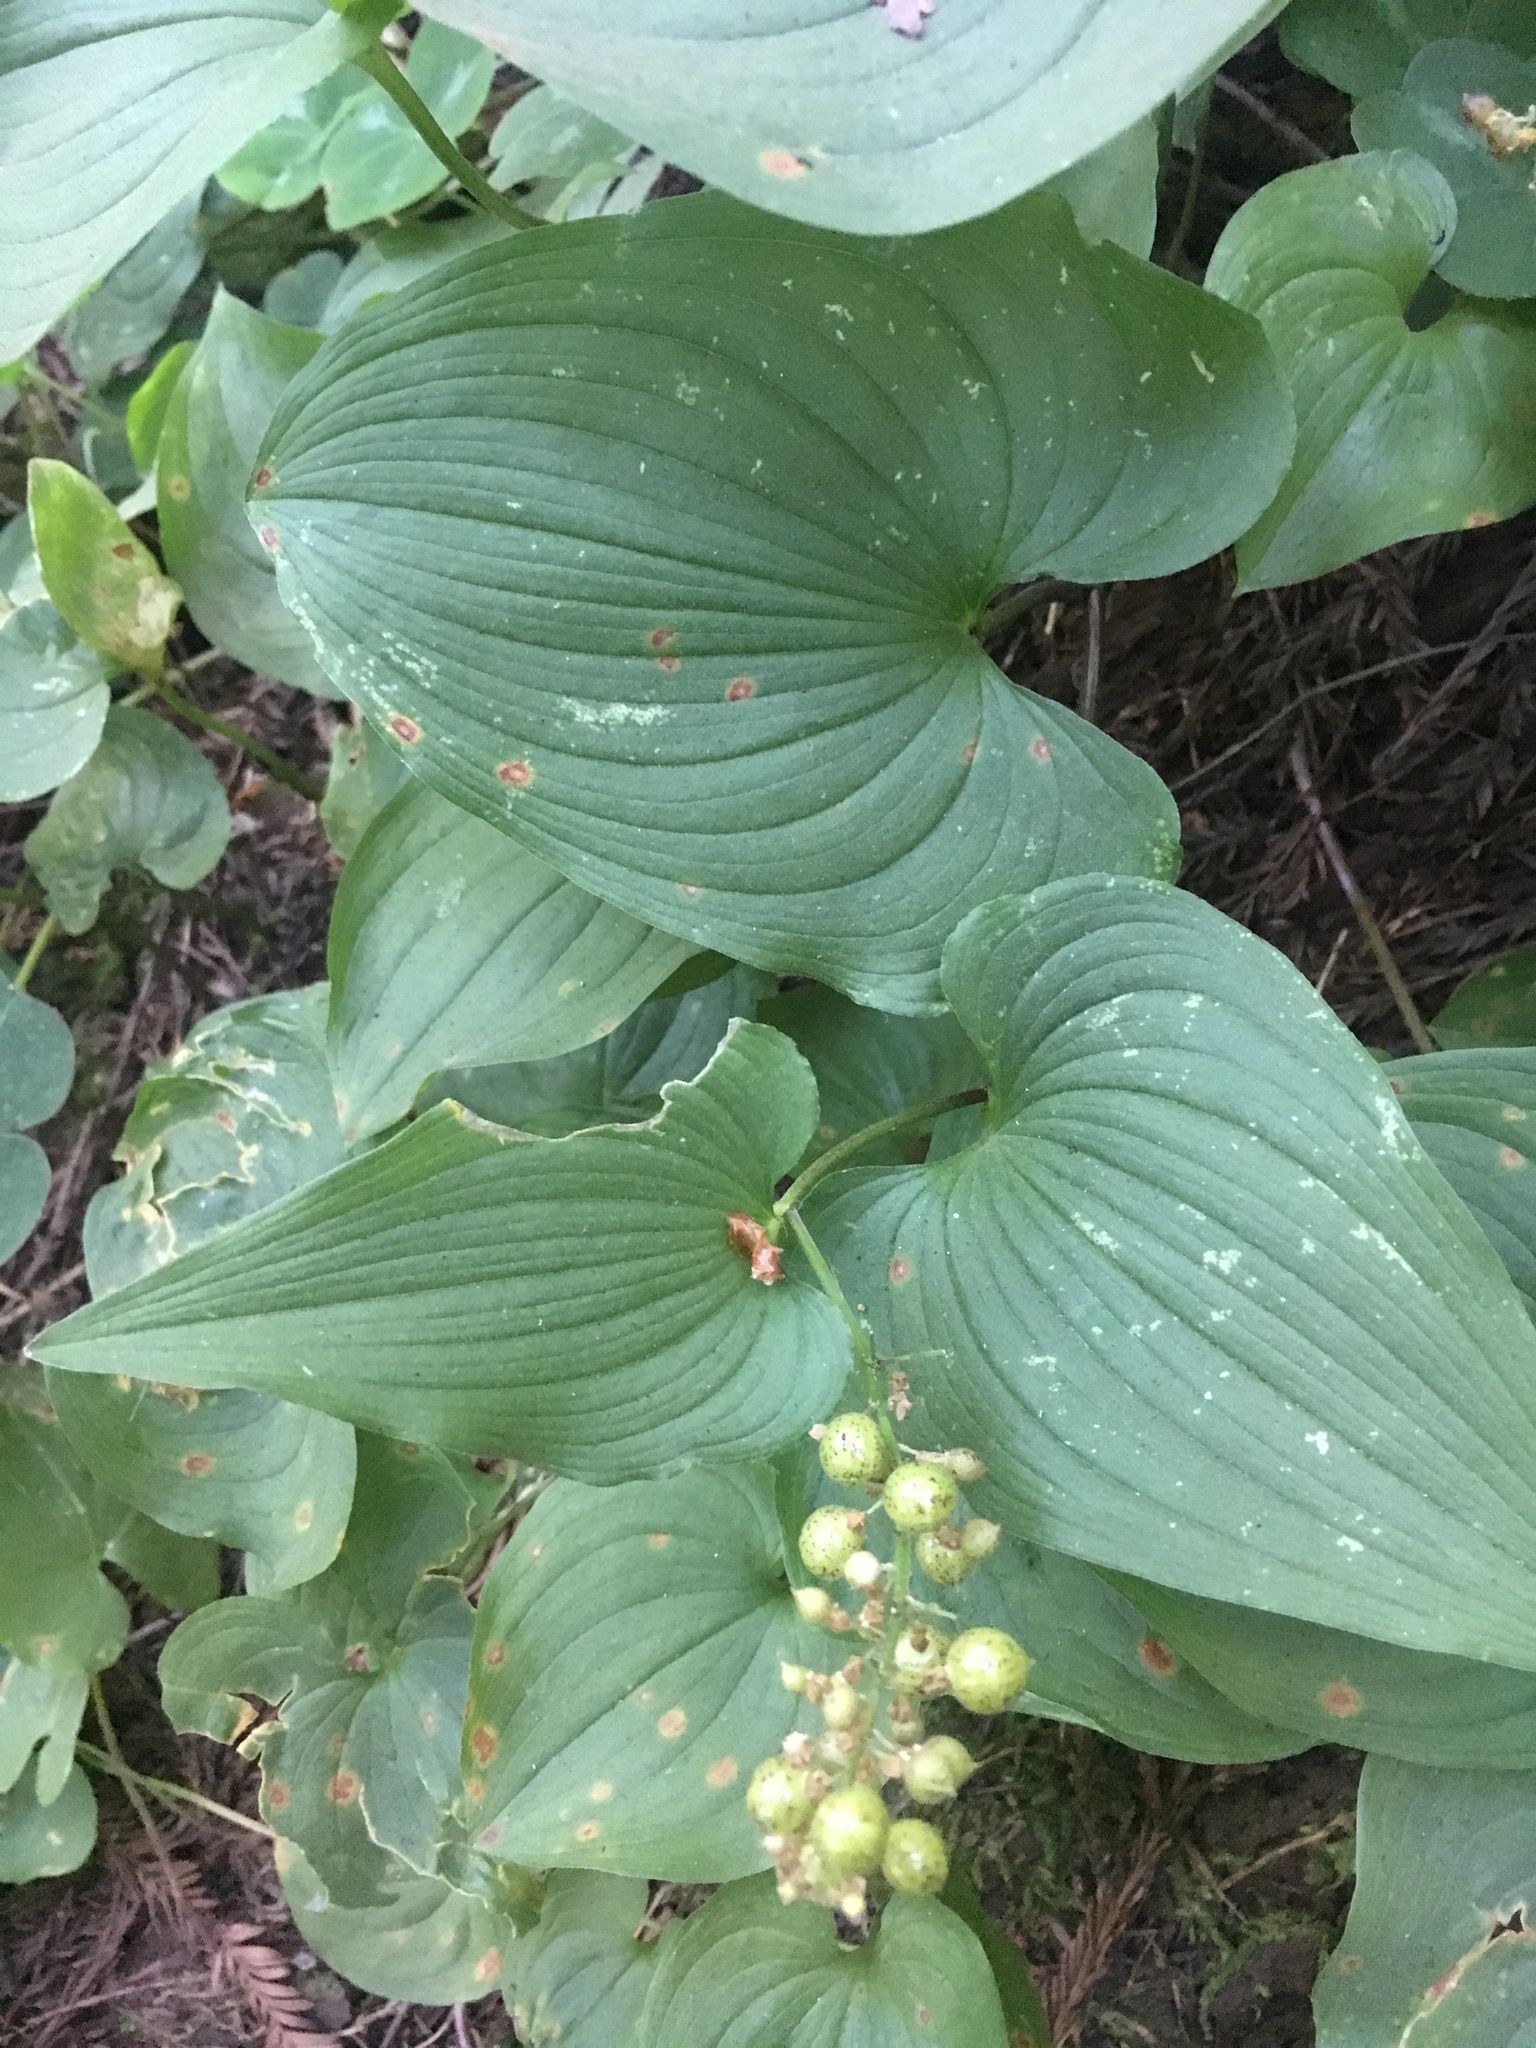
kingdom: Plantae
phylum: Tracheophyta
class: Liliopsida
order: Asparagales
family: Asparagaceae
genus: Maianthemum
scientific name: Maianthemum dilatatum
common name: False lily-of-the-valley
